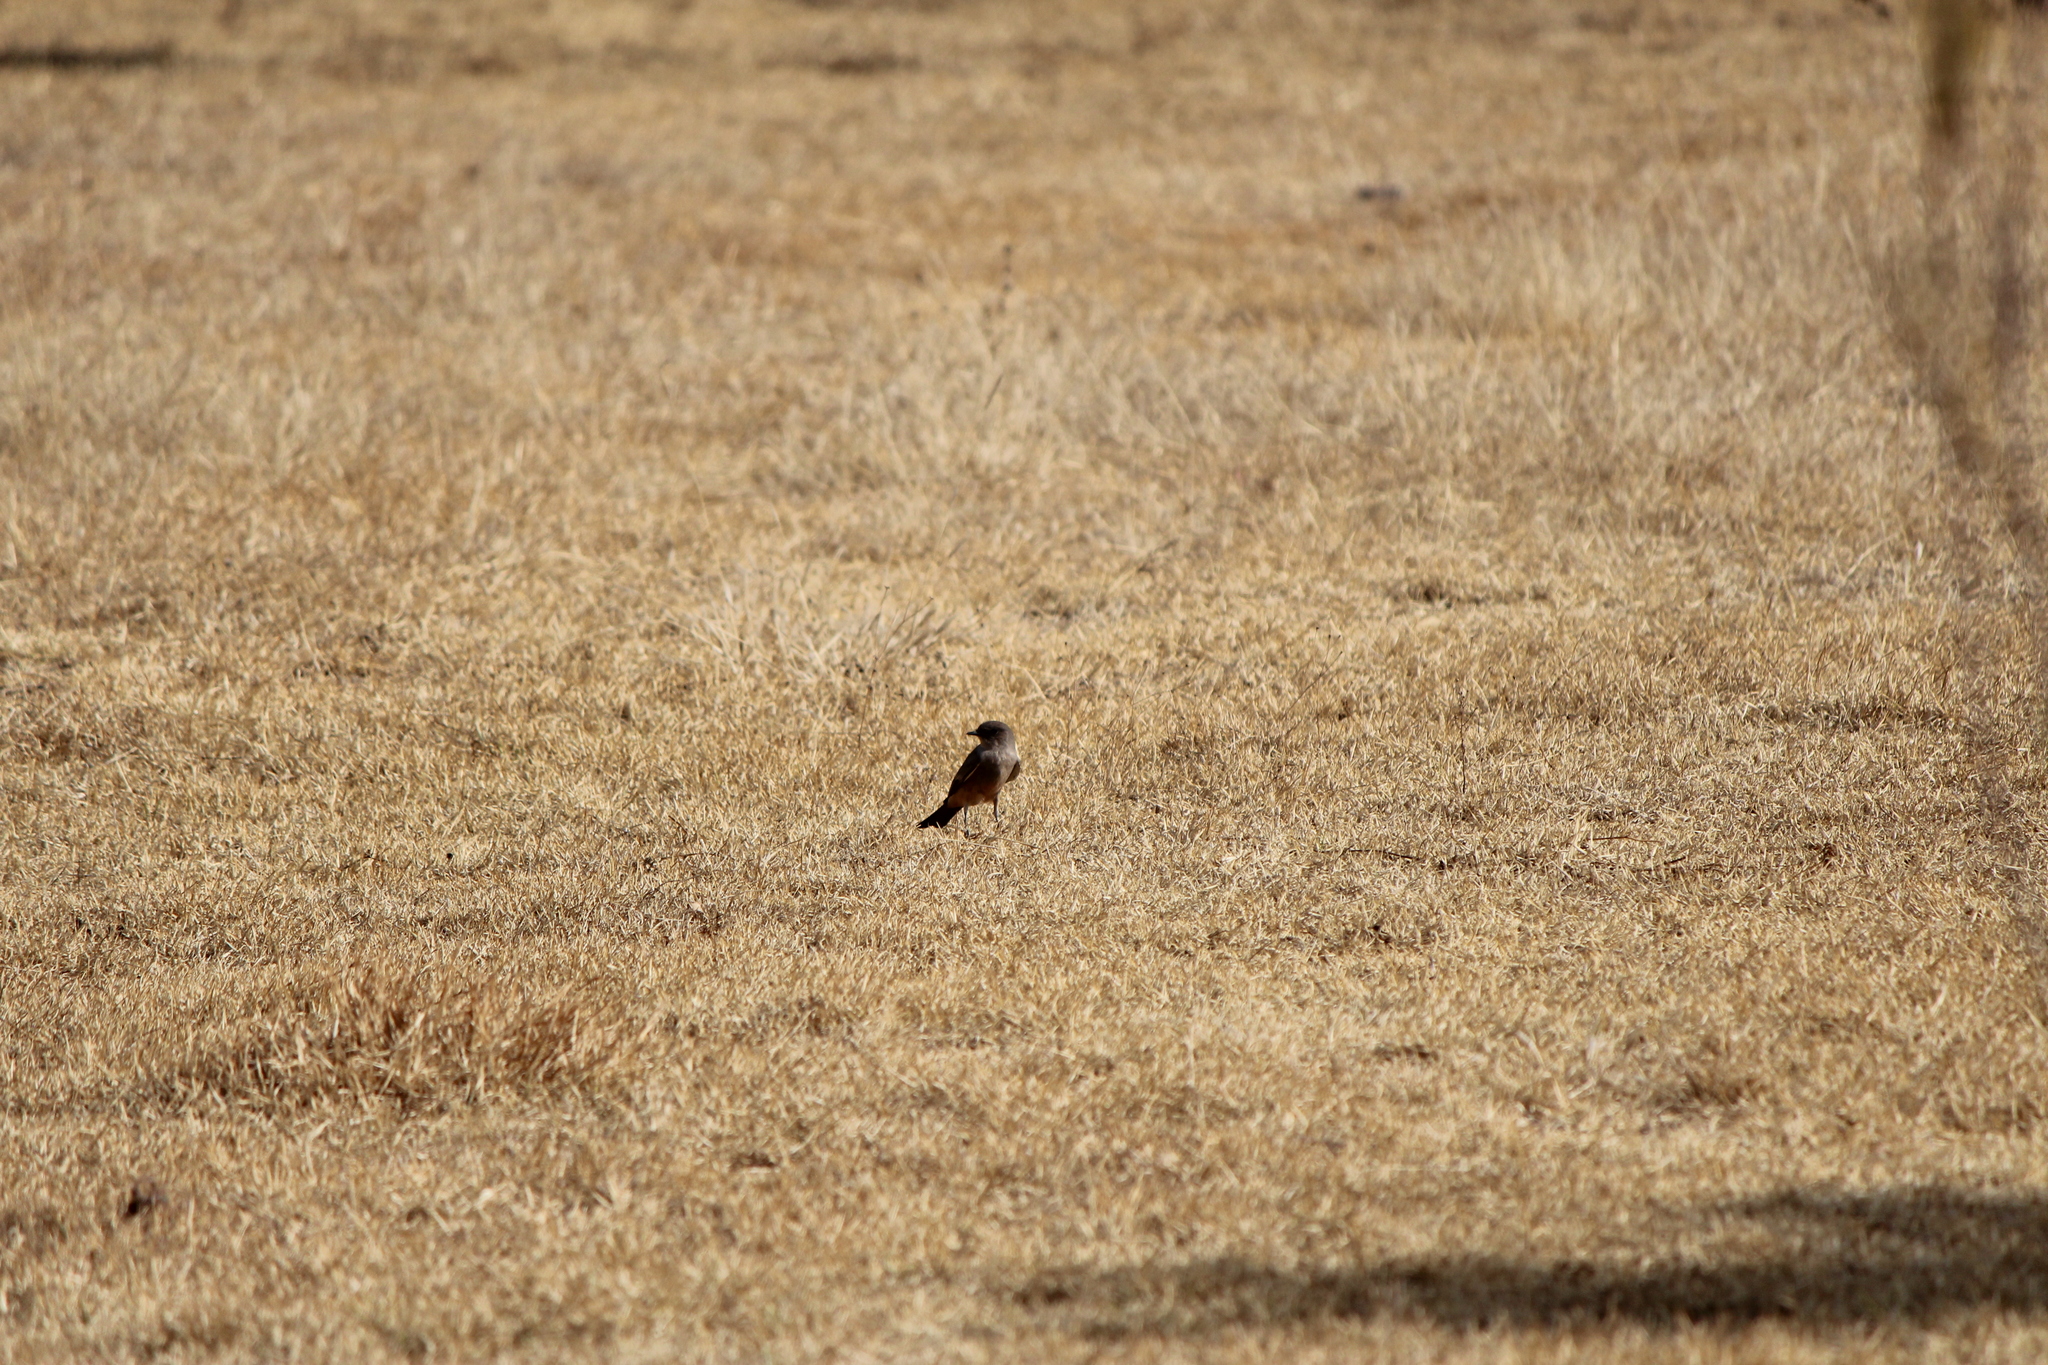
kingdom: Animalia
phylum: Chordata
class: Aves
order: Passeriformes
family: Tyrannidae
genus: Sayornis
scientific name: Sayornis saya
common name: Say's phoebe
